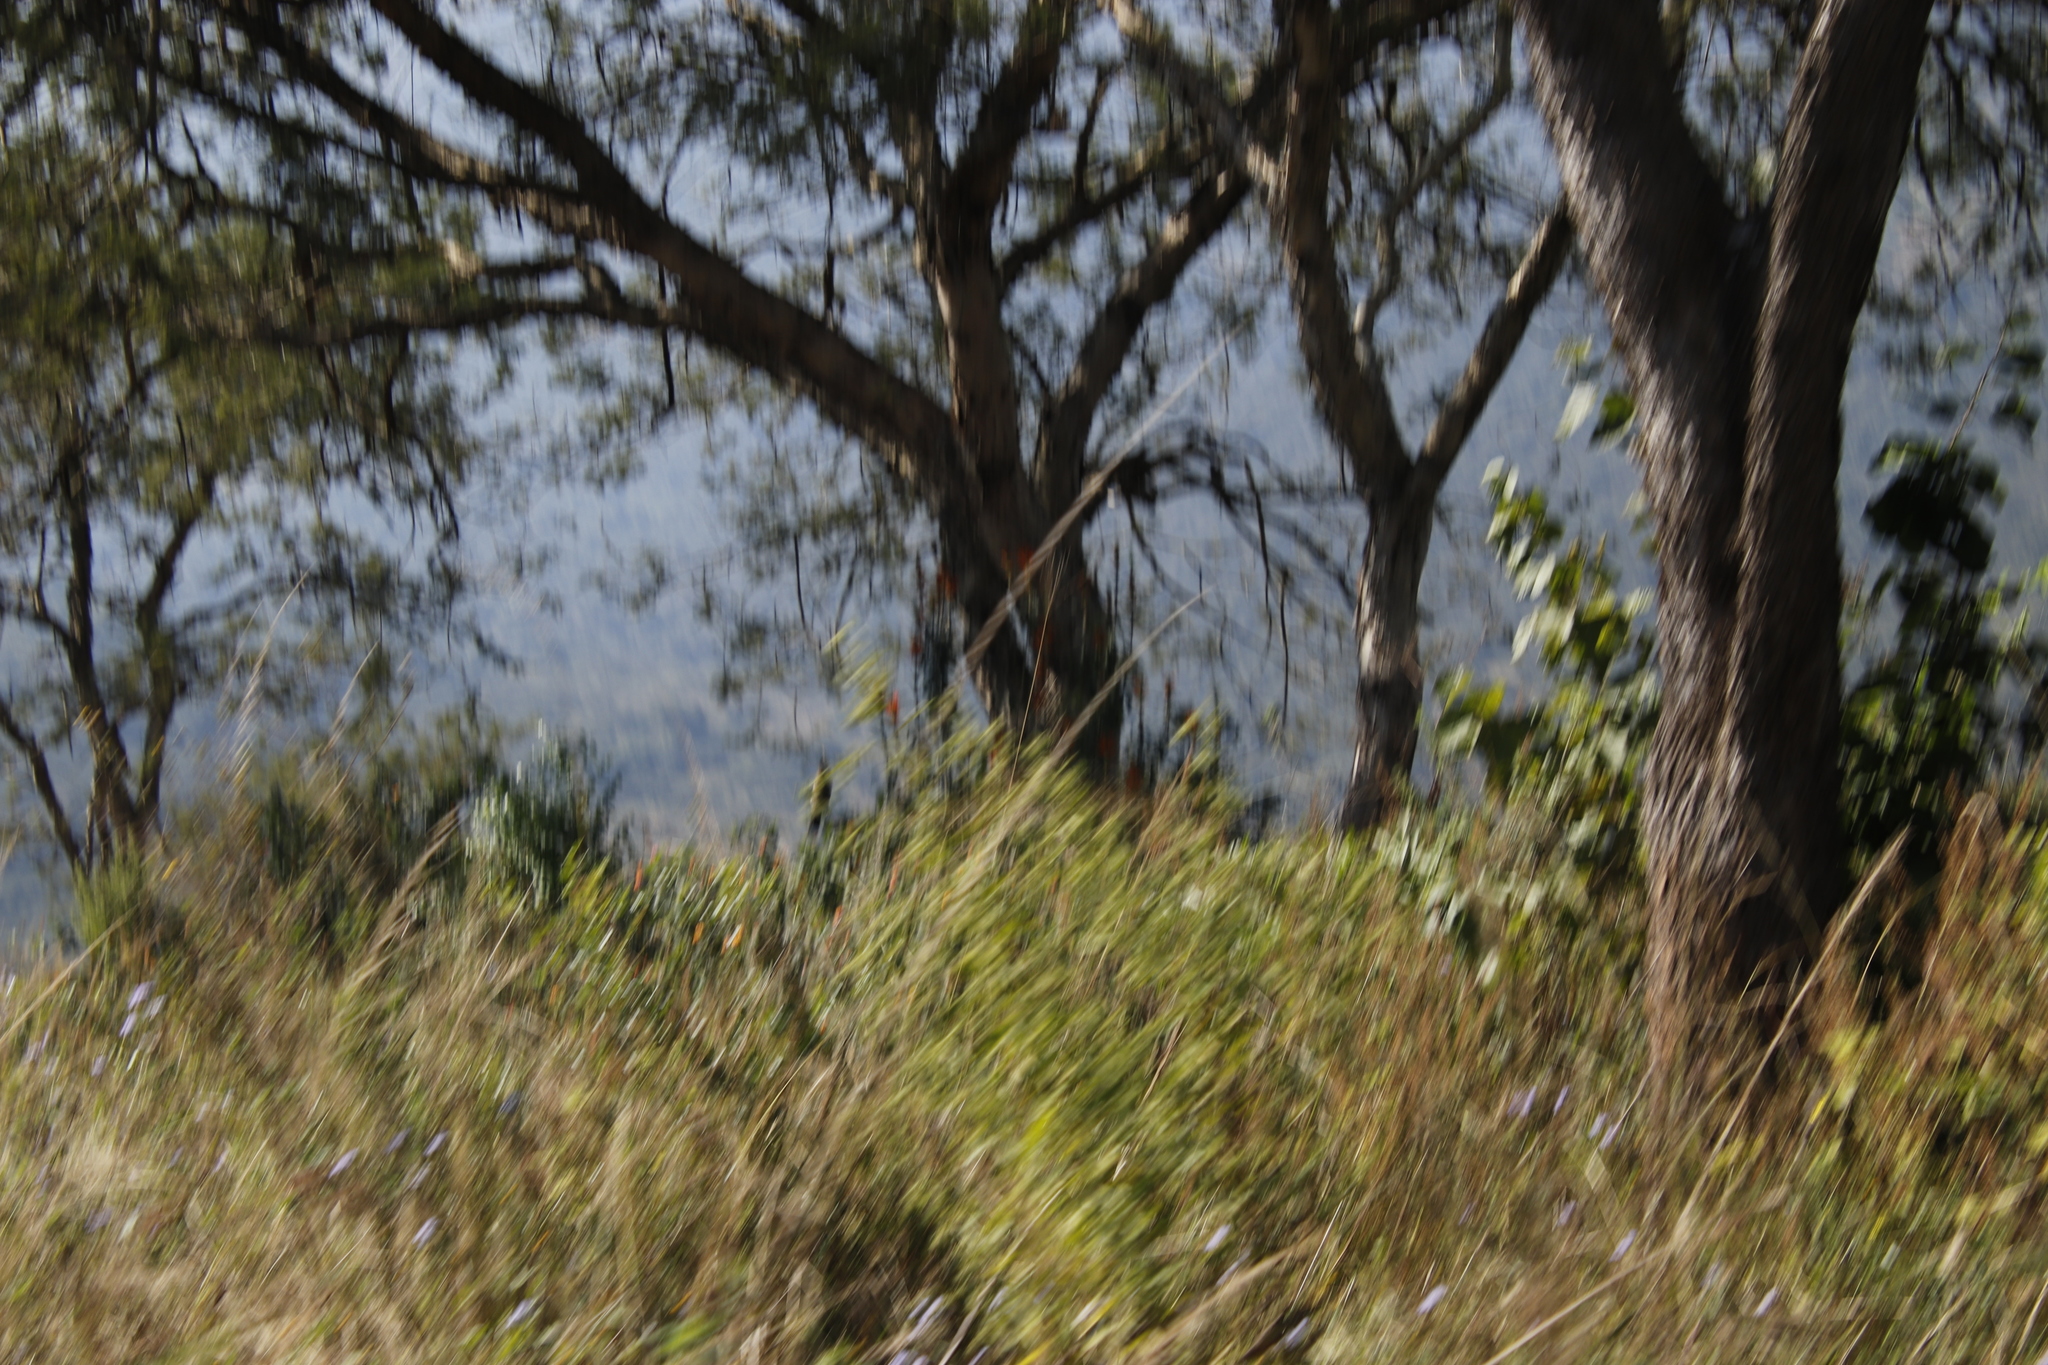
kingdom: Plantae
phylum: Tracheophyta
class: Magnoliopsida
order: Lamiales
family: Verbenaceae
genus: Lantana
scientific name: Lantana camara
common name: Lantana
